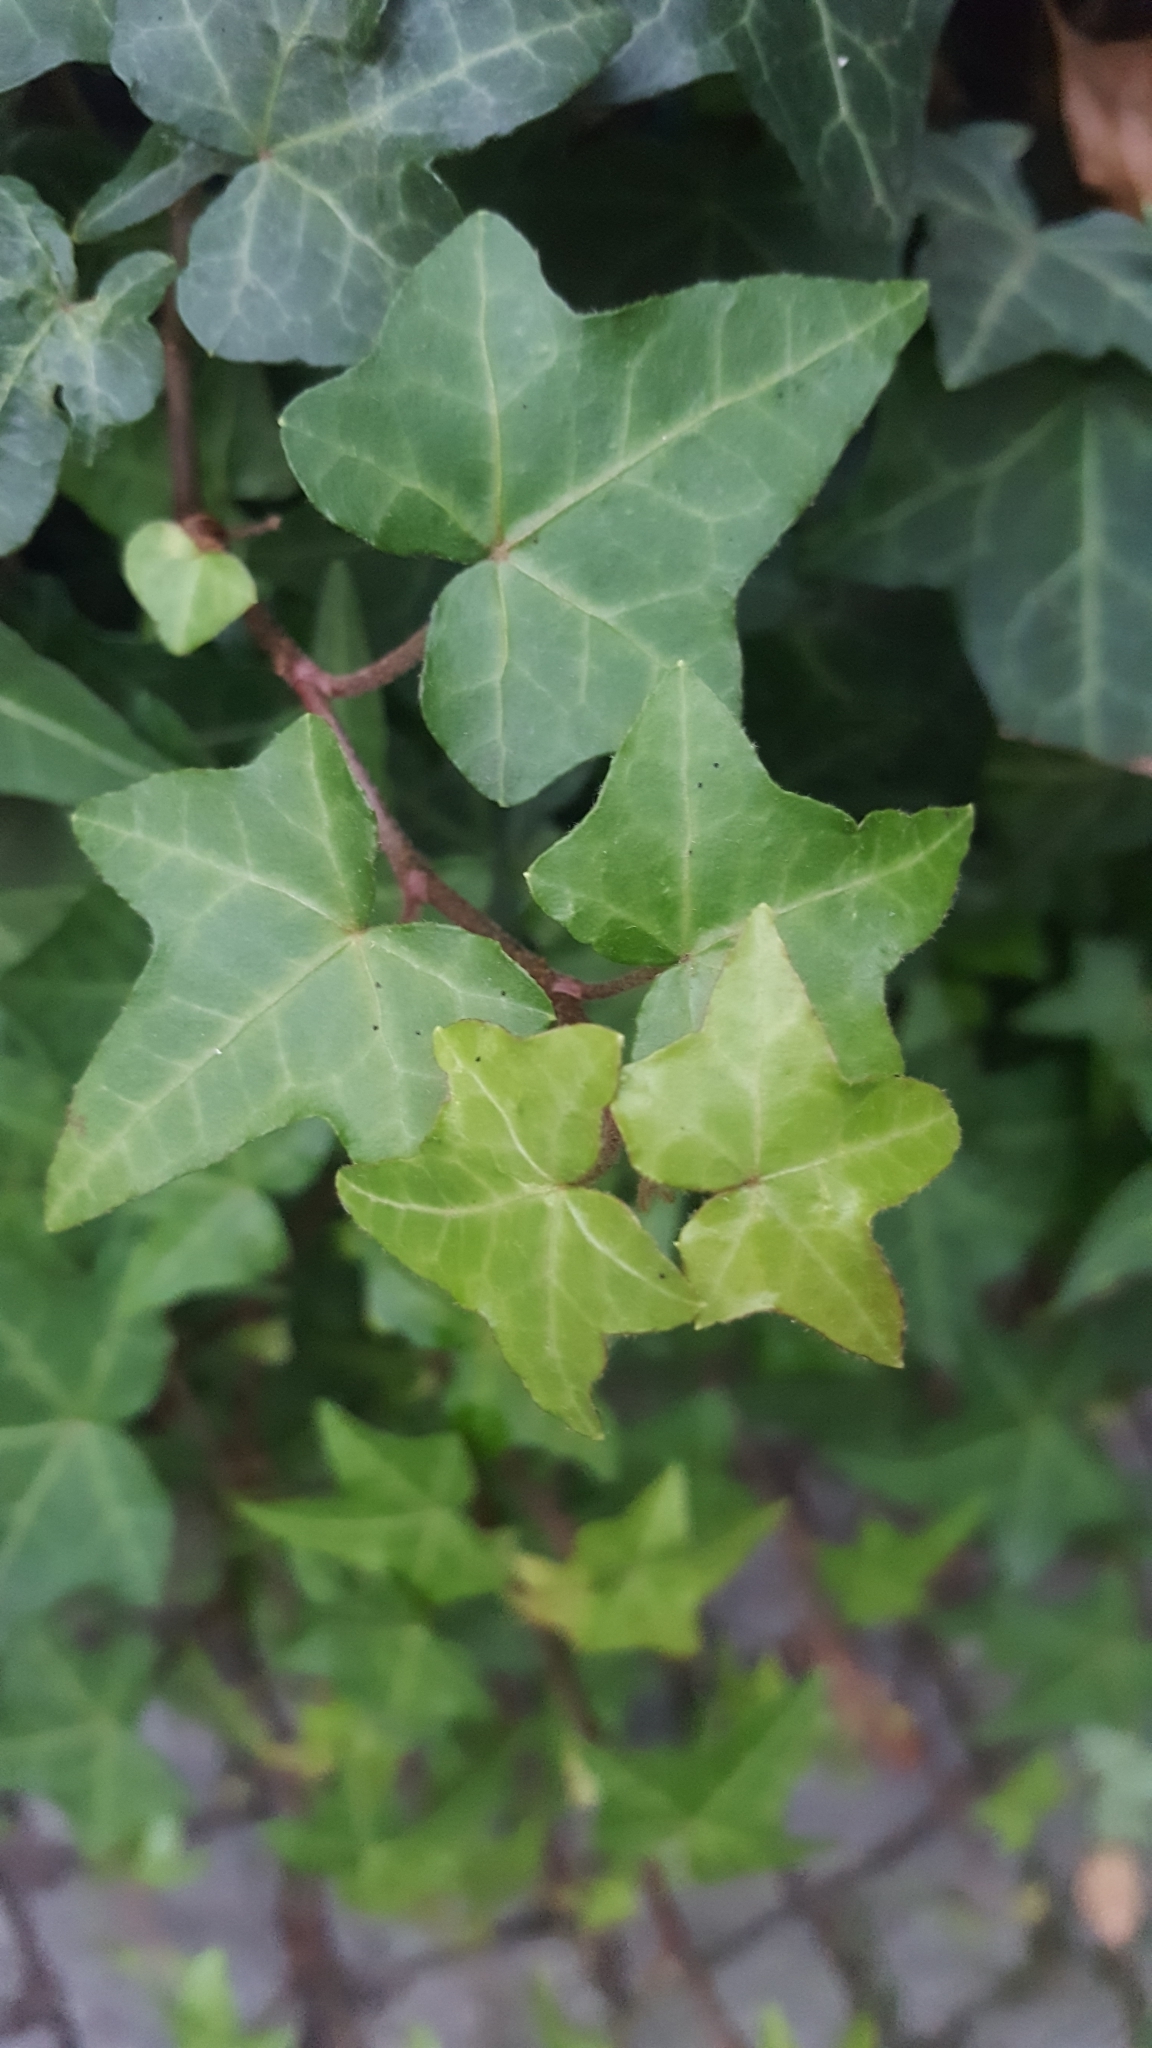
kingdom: Plantae
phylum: Tracheophyta
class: Magnoliopsida
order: Apiales
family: Araliaceae
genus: Hedera
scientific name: Hedera helix
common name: Ivy
